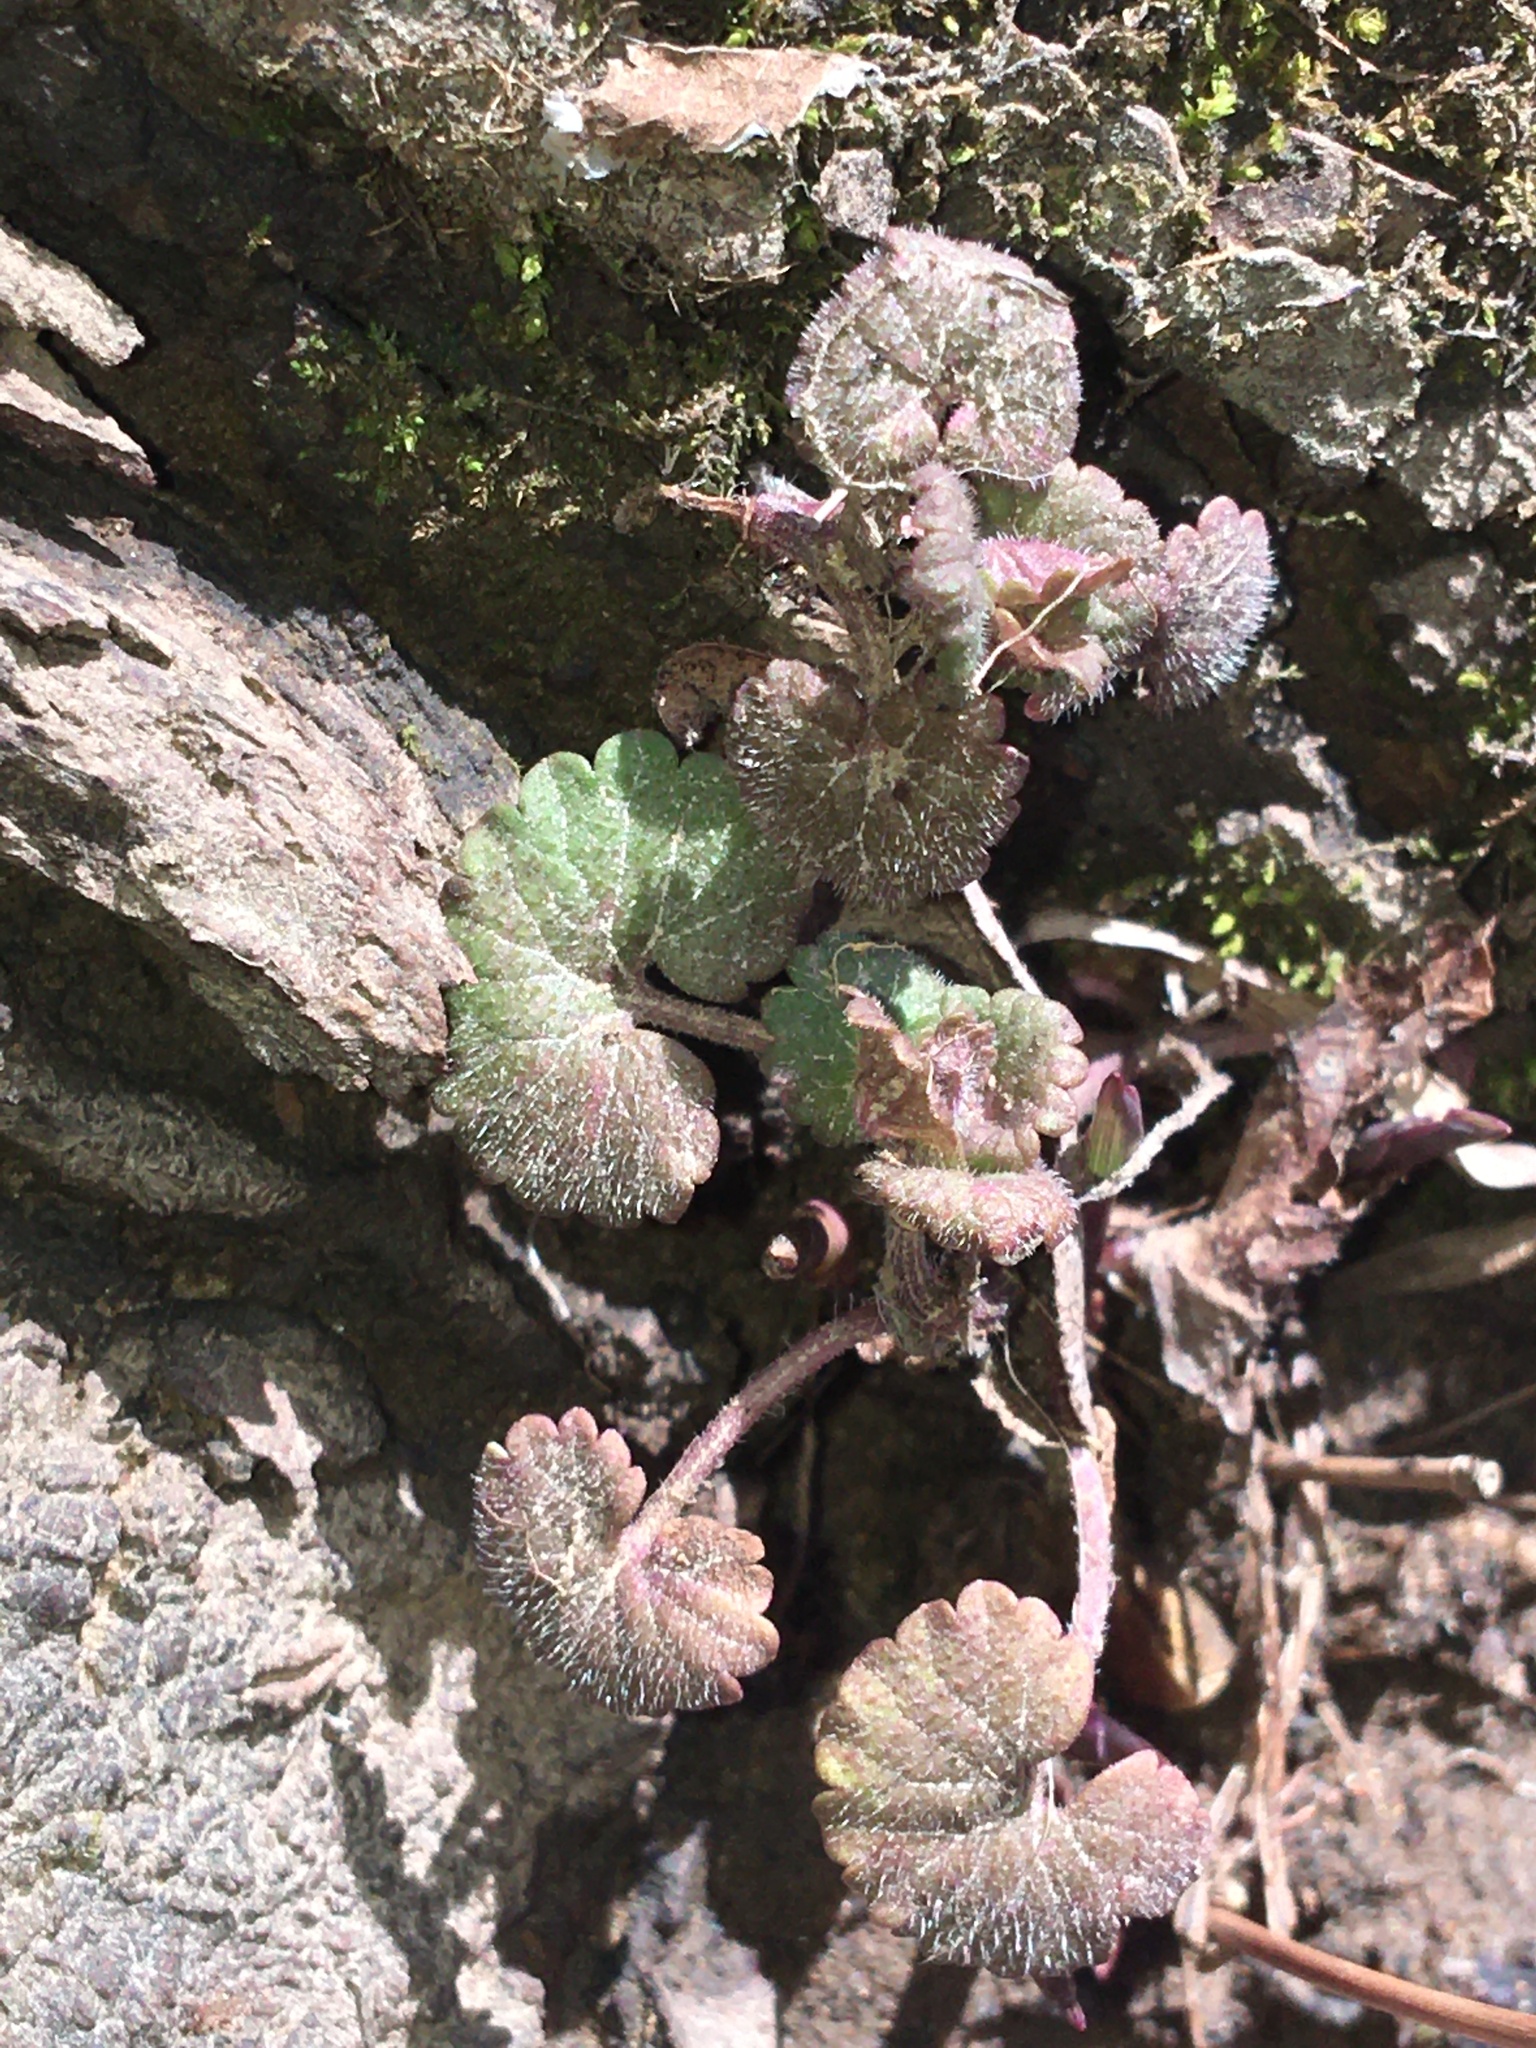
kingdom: Plantae
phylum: Tracheophyta
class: Magnoliopsida
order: Lamiales
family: Lamiaceae
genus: Glechoma
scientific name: Glechoma hederacea
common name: Ground ivy
